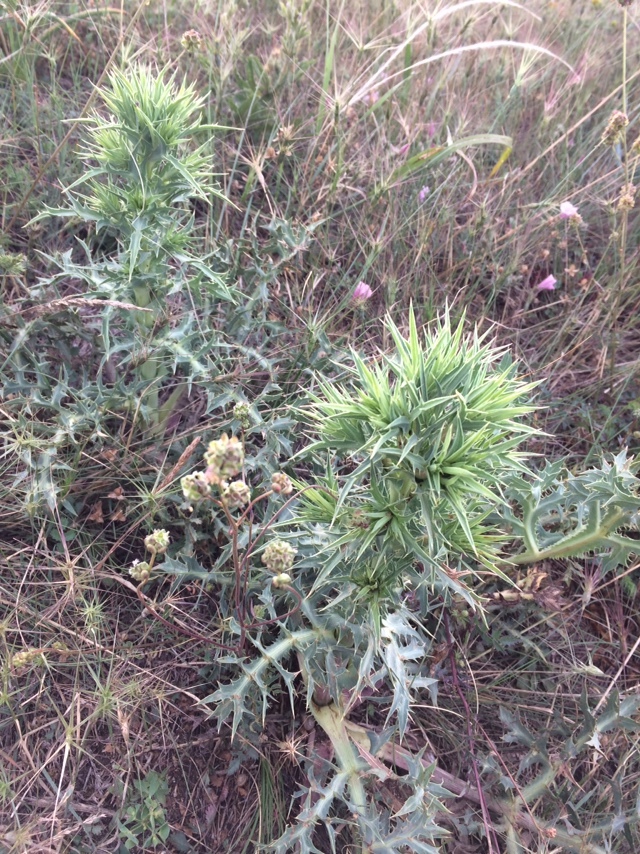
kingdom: Plantae
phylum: Tracheophyta
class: Magnoliopsida
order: Apiales
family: Apiaceae
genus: Eryngium
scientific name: Eryngium campestre
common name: Field eryngo
